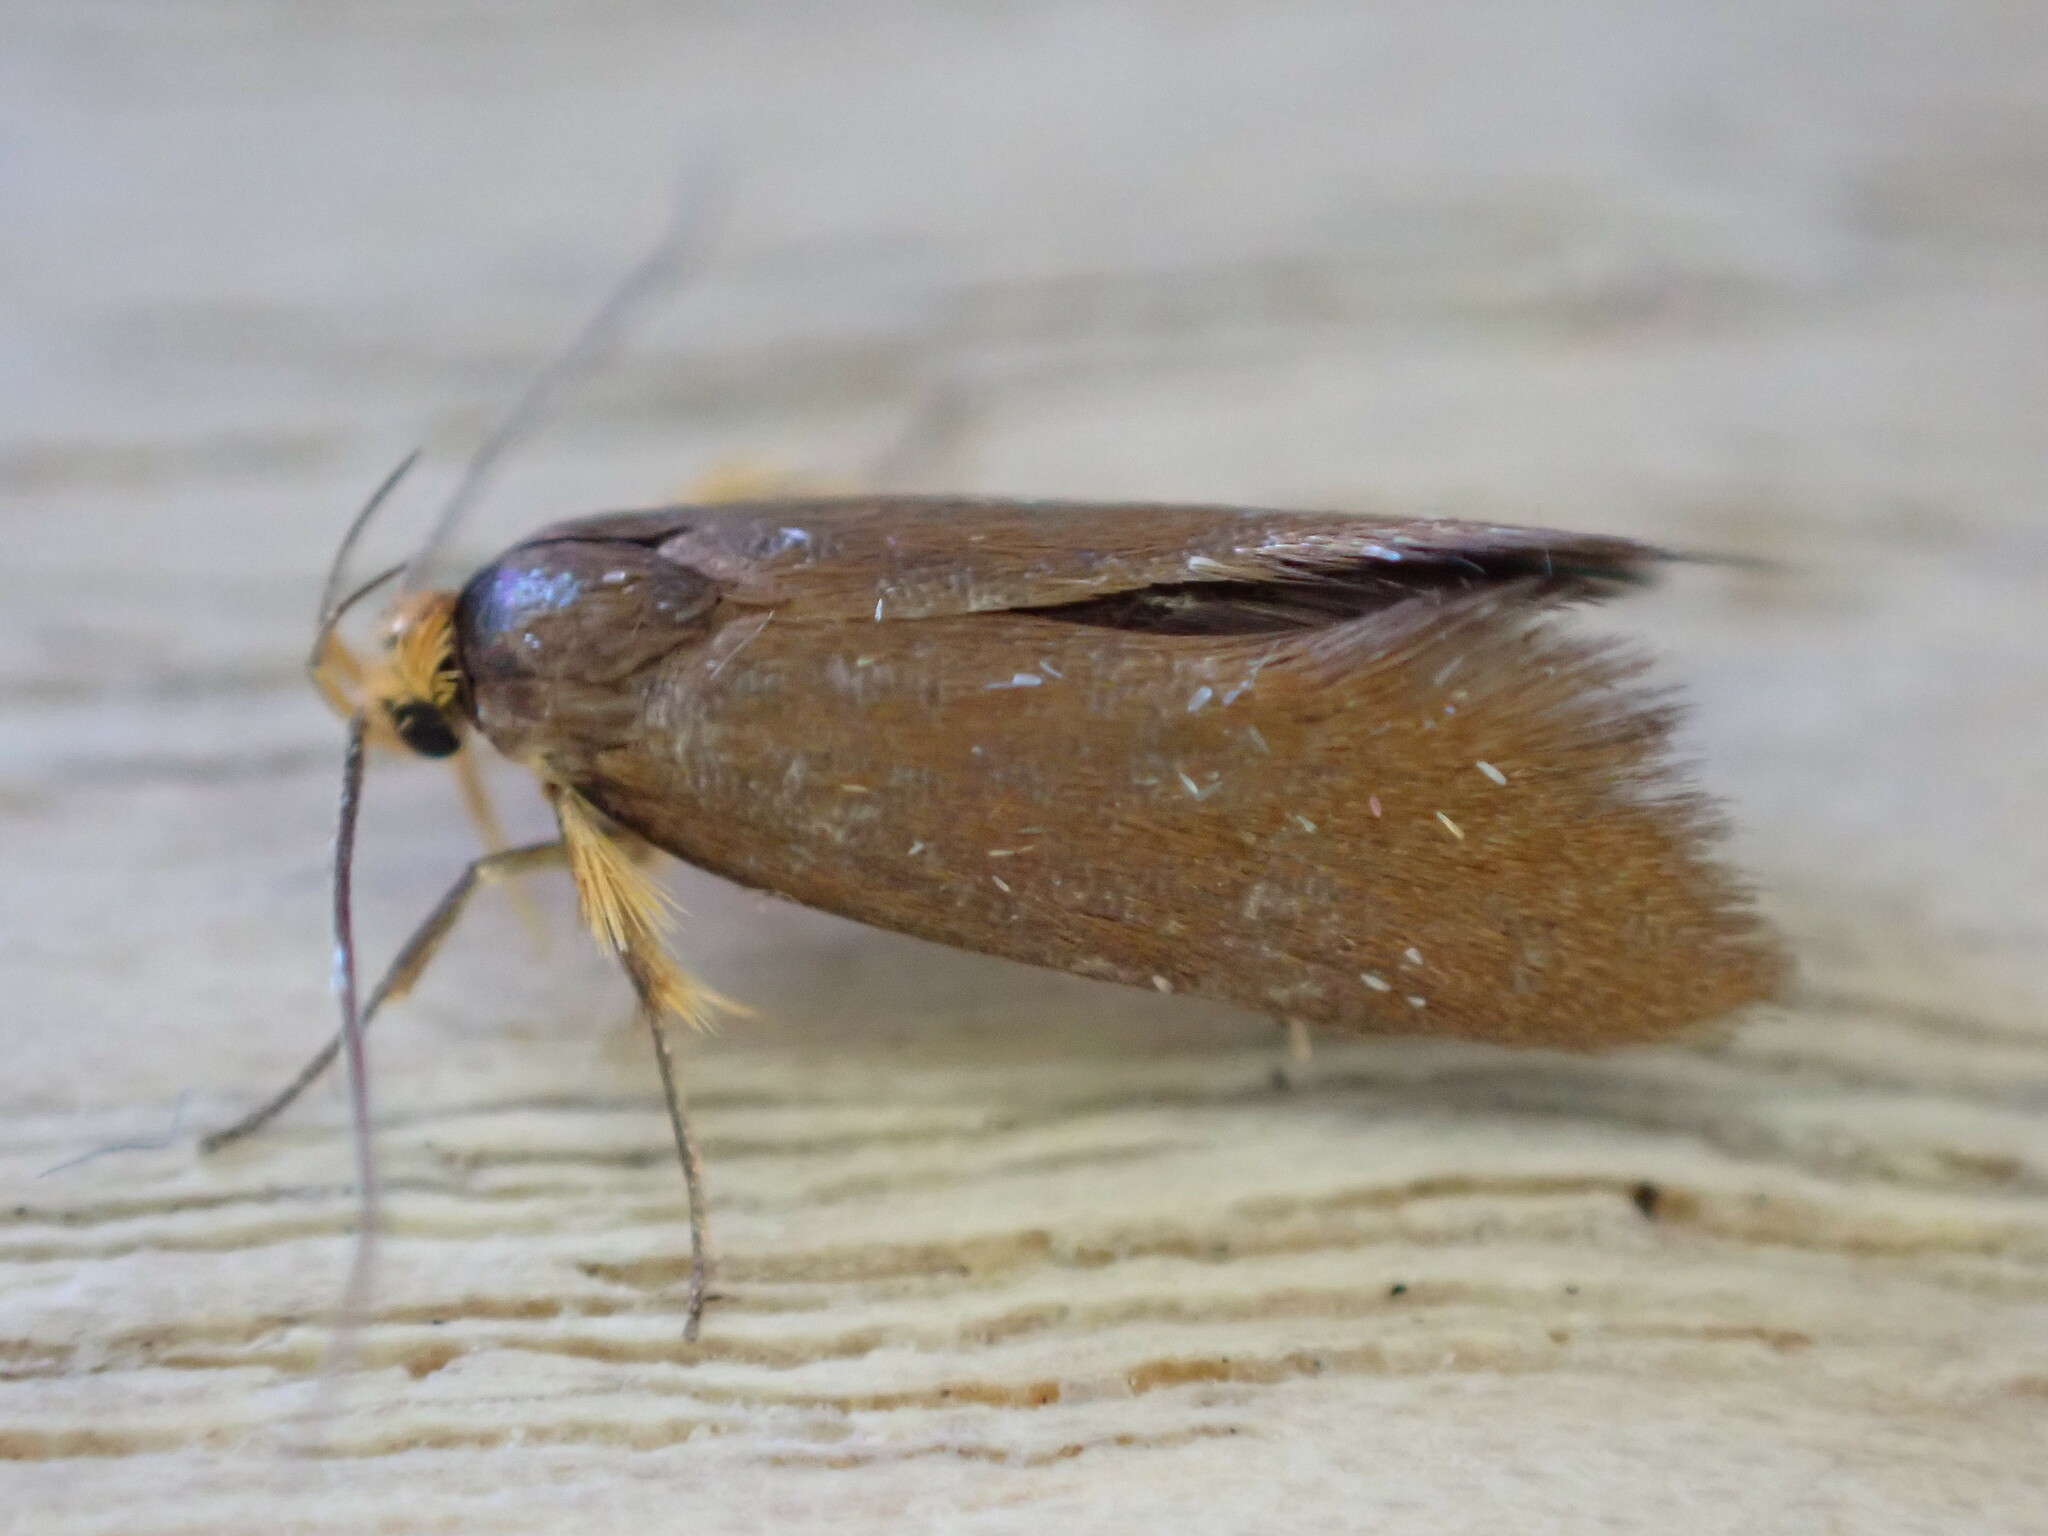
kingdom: Animalia
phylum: Arthropoda
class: Insecta
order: Lepidoptera
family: Oecophoridae
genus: Borkhausenia
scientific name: Borkhausenia Crassa unitella
